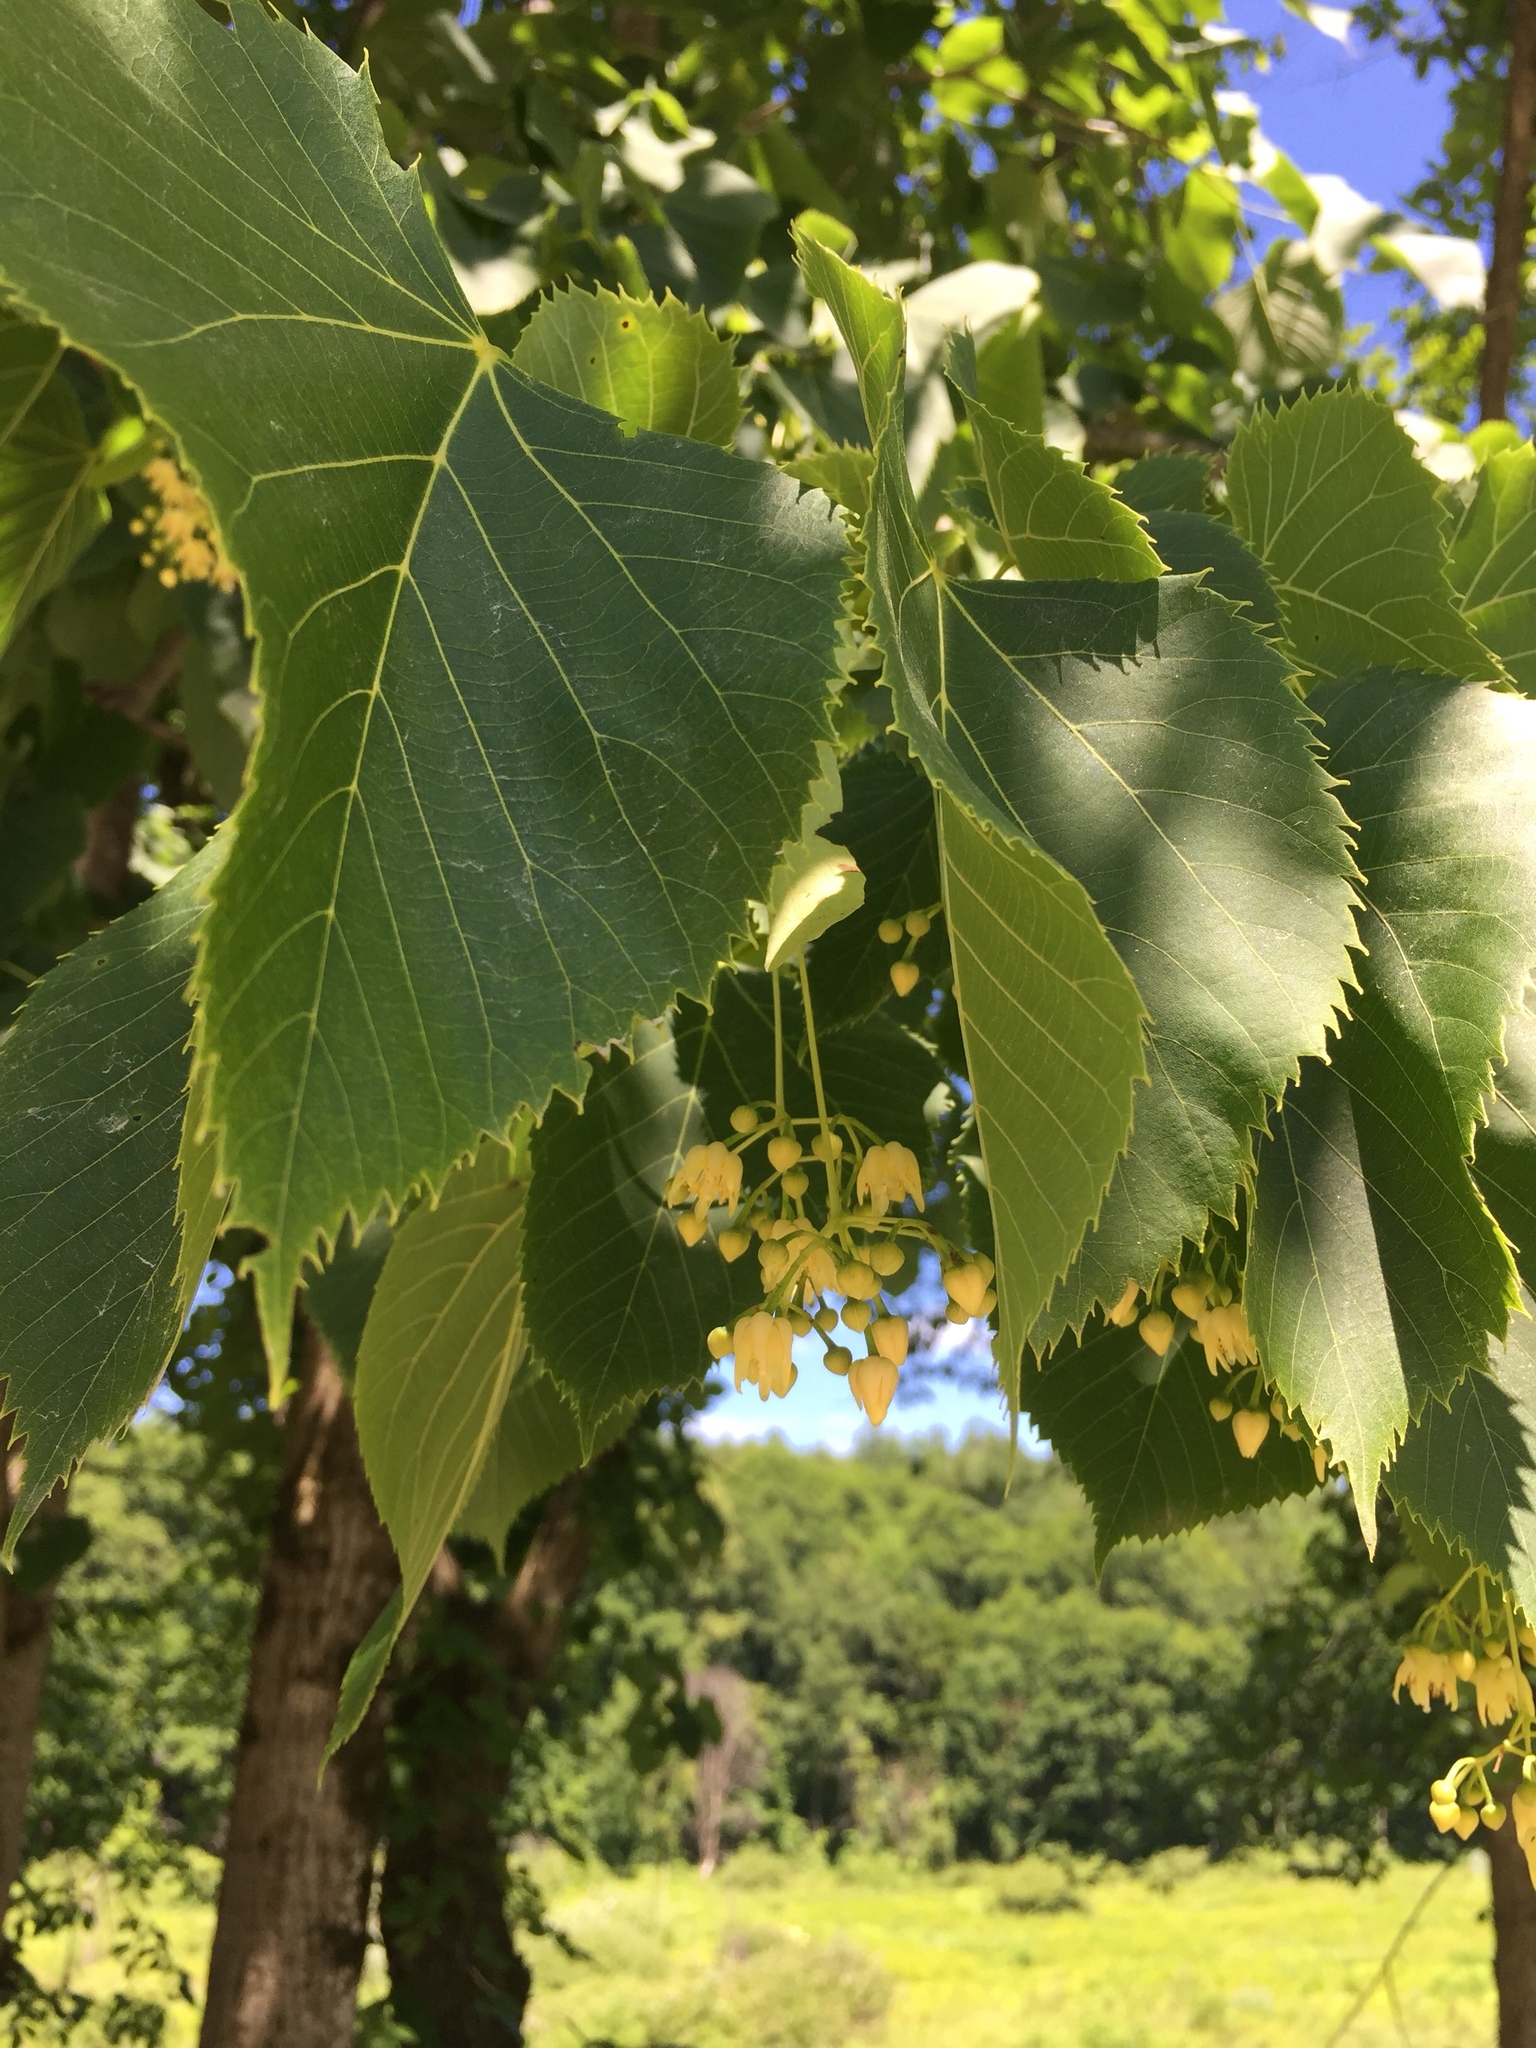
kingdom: Plantae
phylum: Tracheophyta
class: Magnoliopsida
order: Malvales
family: Malvaceae
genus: Tilia
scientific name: Tilia americana
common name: Basswood
